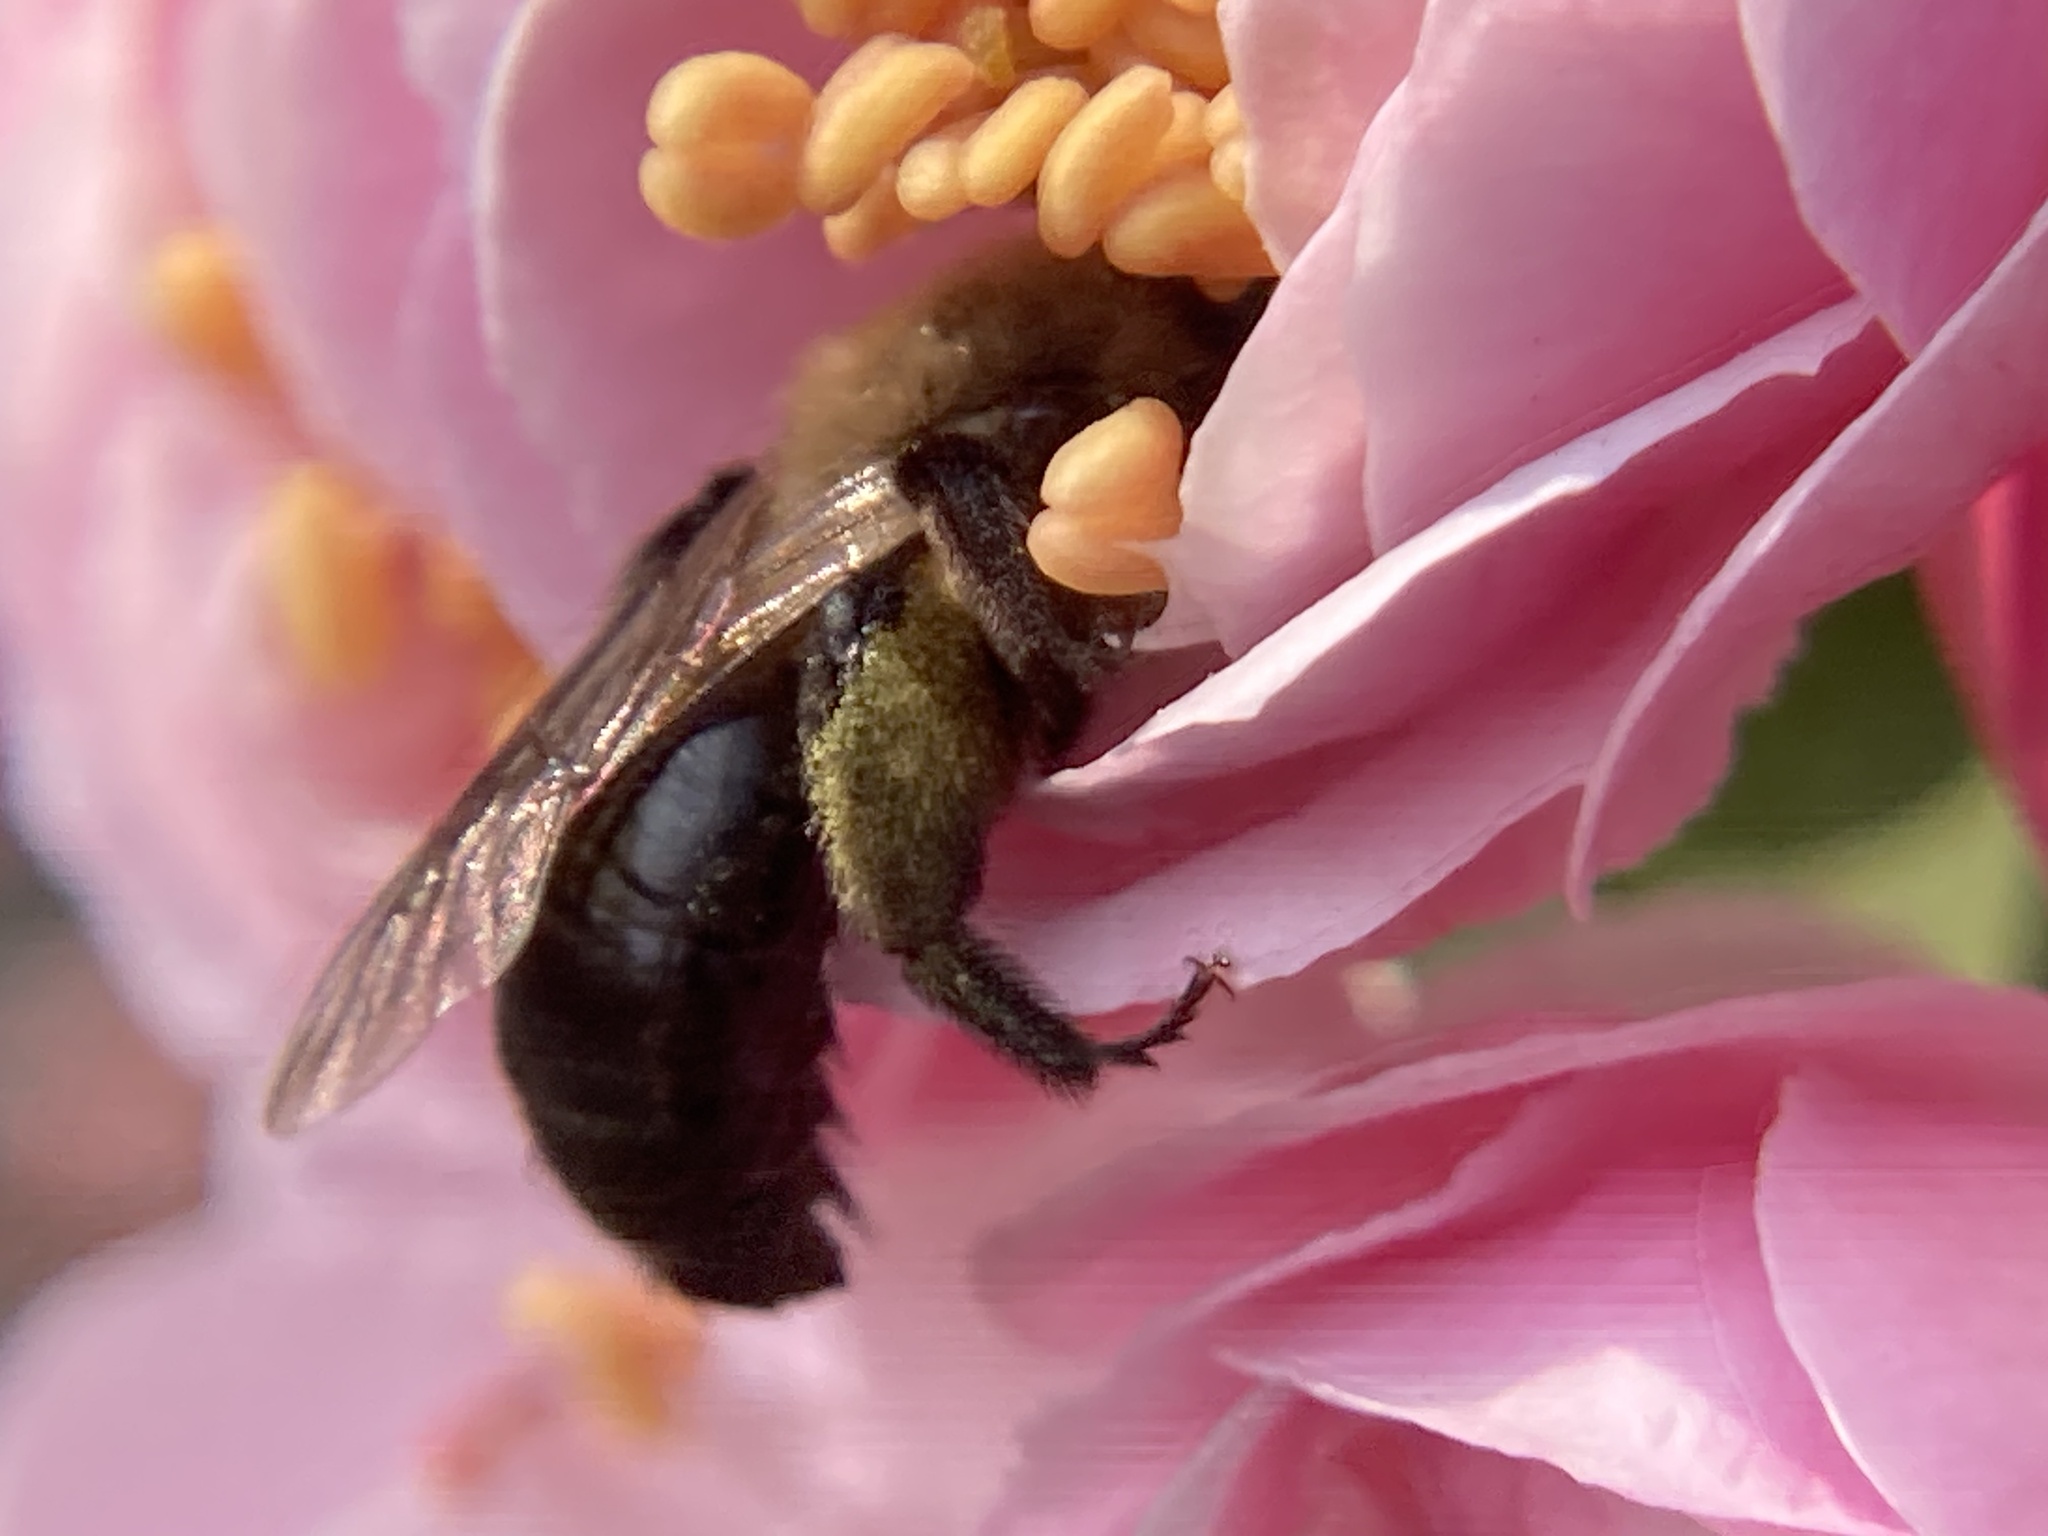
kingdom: Animalia
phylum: Arthropoda
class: Insecta
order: Hymenoptera
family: Andrenidae
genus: Andrena
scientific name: Andrena vicina
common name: Neighborly mining bee
